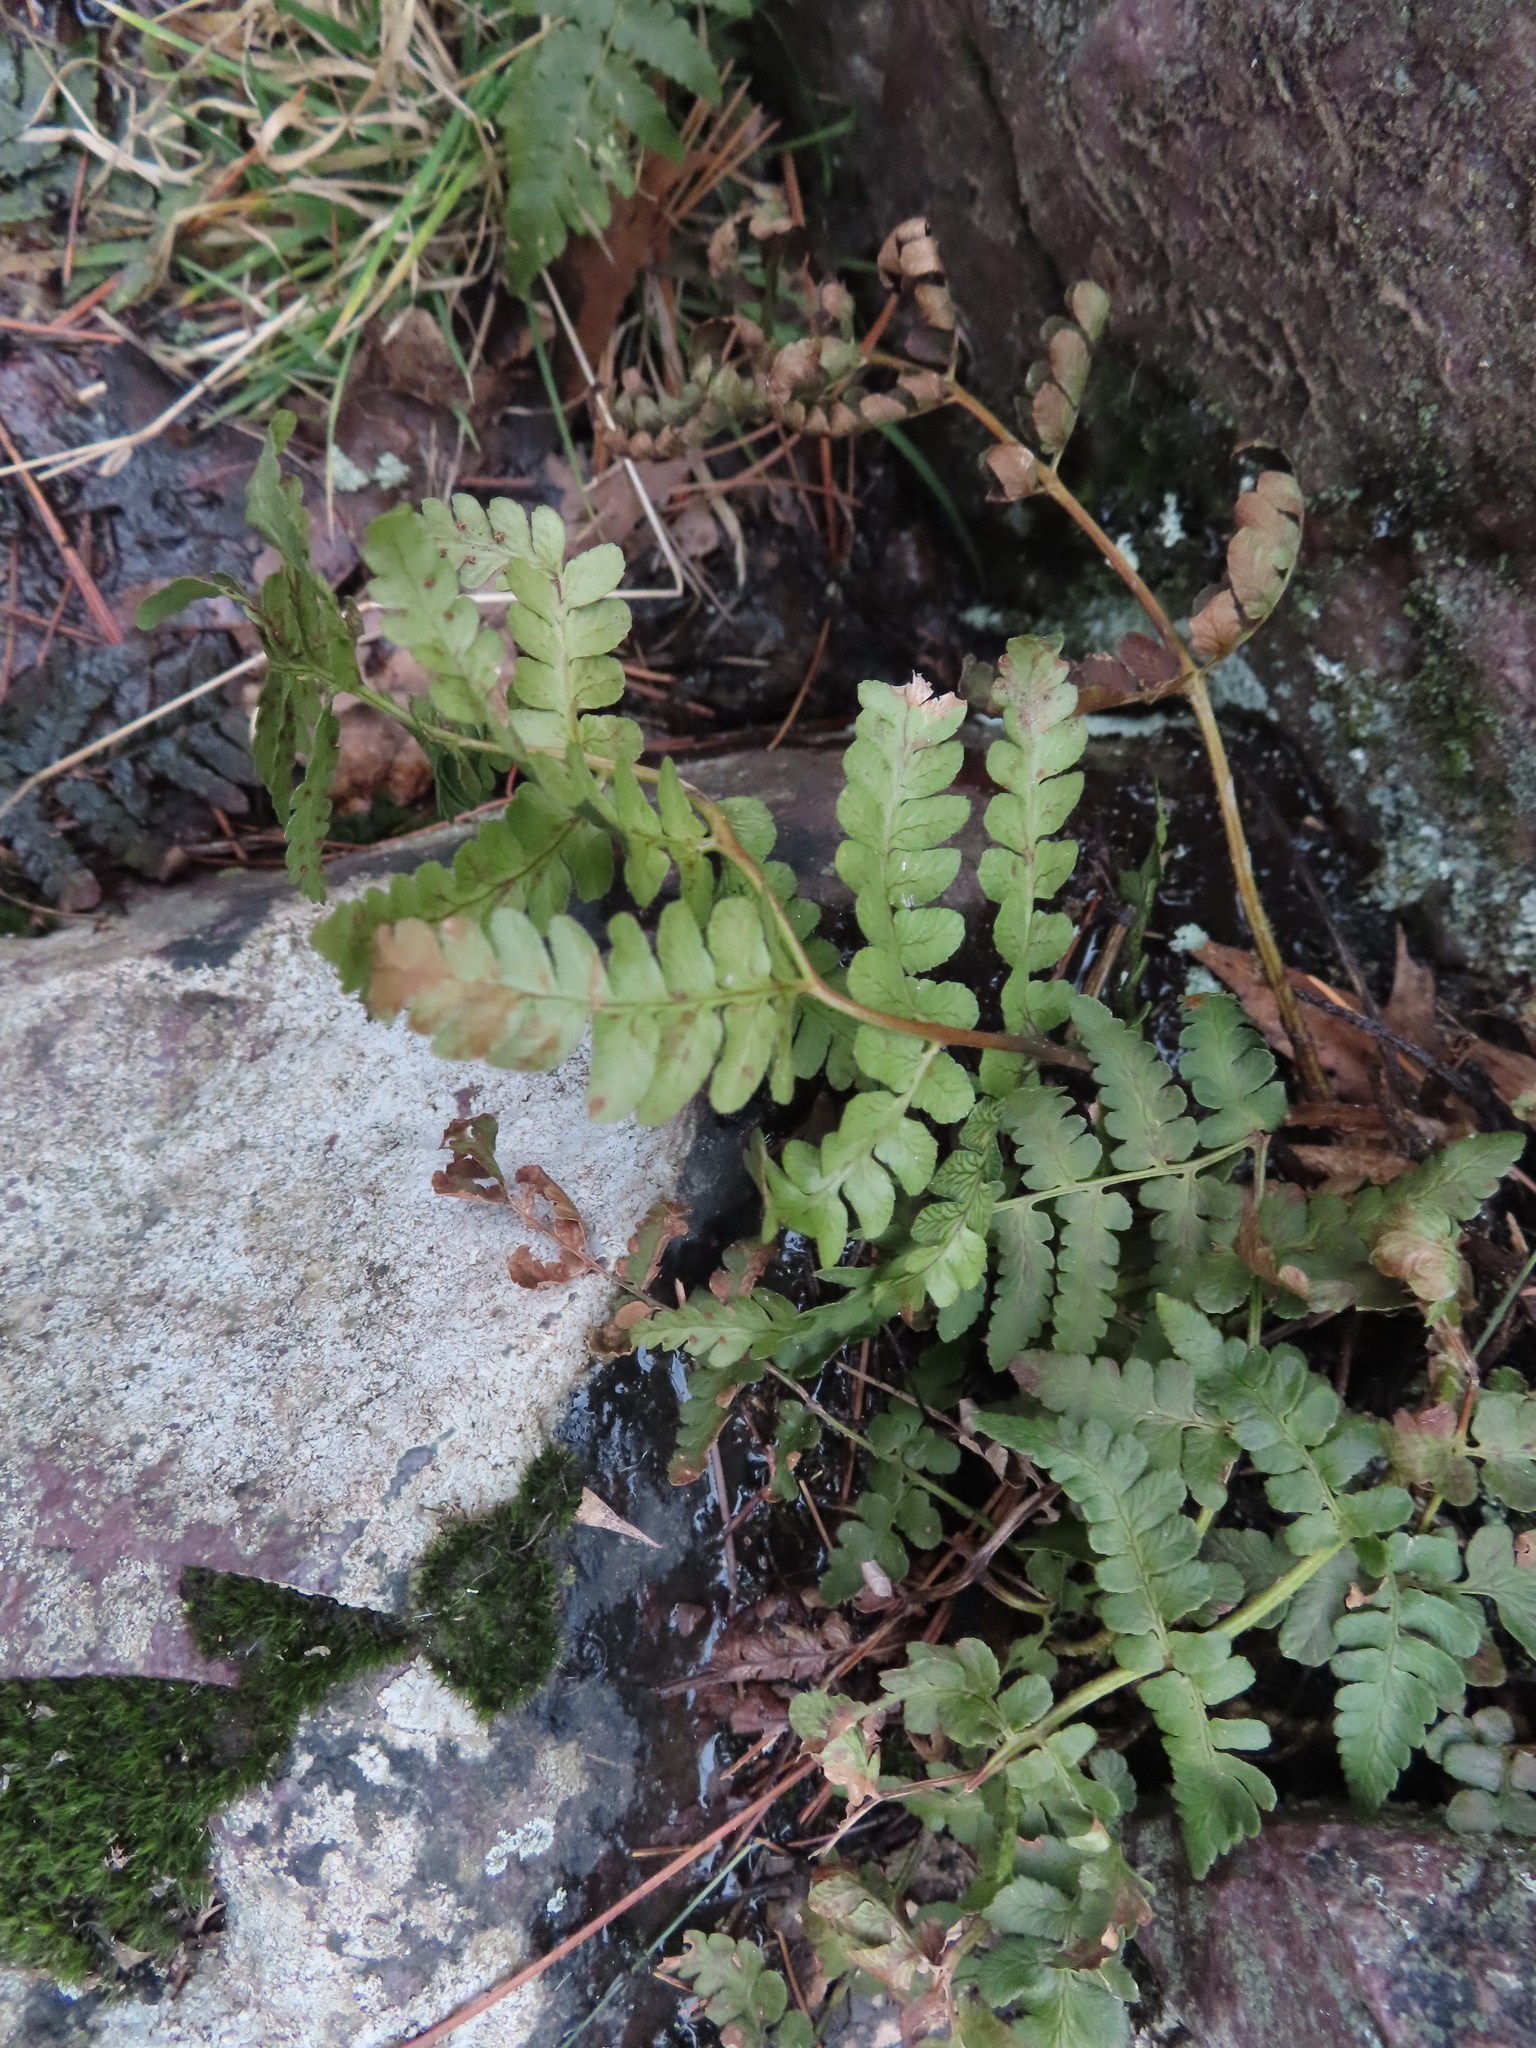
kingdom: Plantae
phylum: Tracheophyta
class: Polypodiopsida
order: Polypodiales
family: Dryopteridaceae
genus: Dryopteris
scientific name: Dryopteris marginalis
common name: Marginal wood fern
